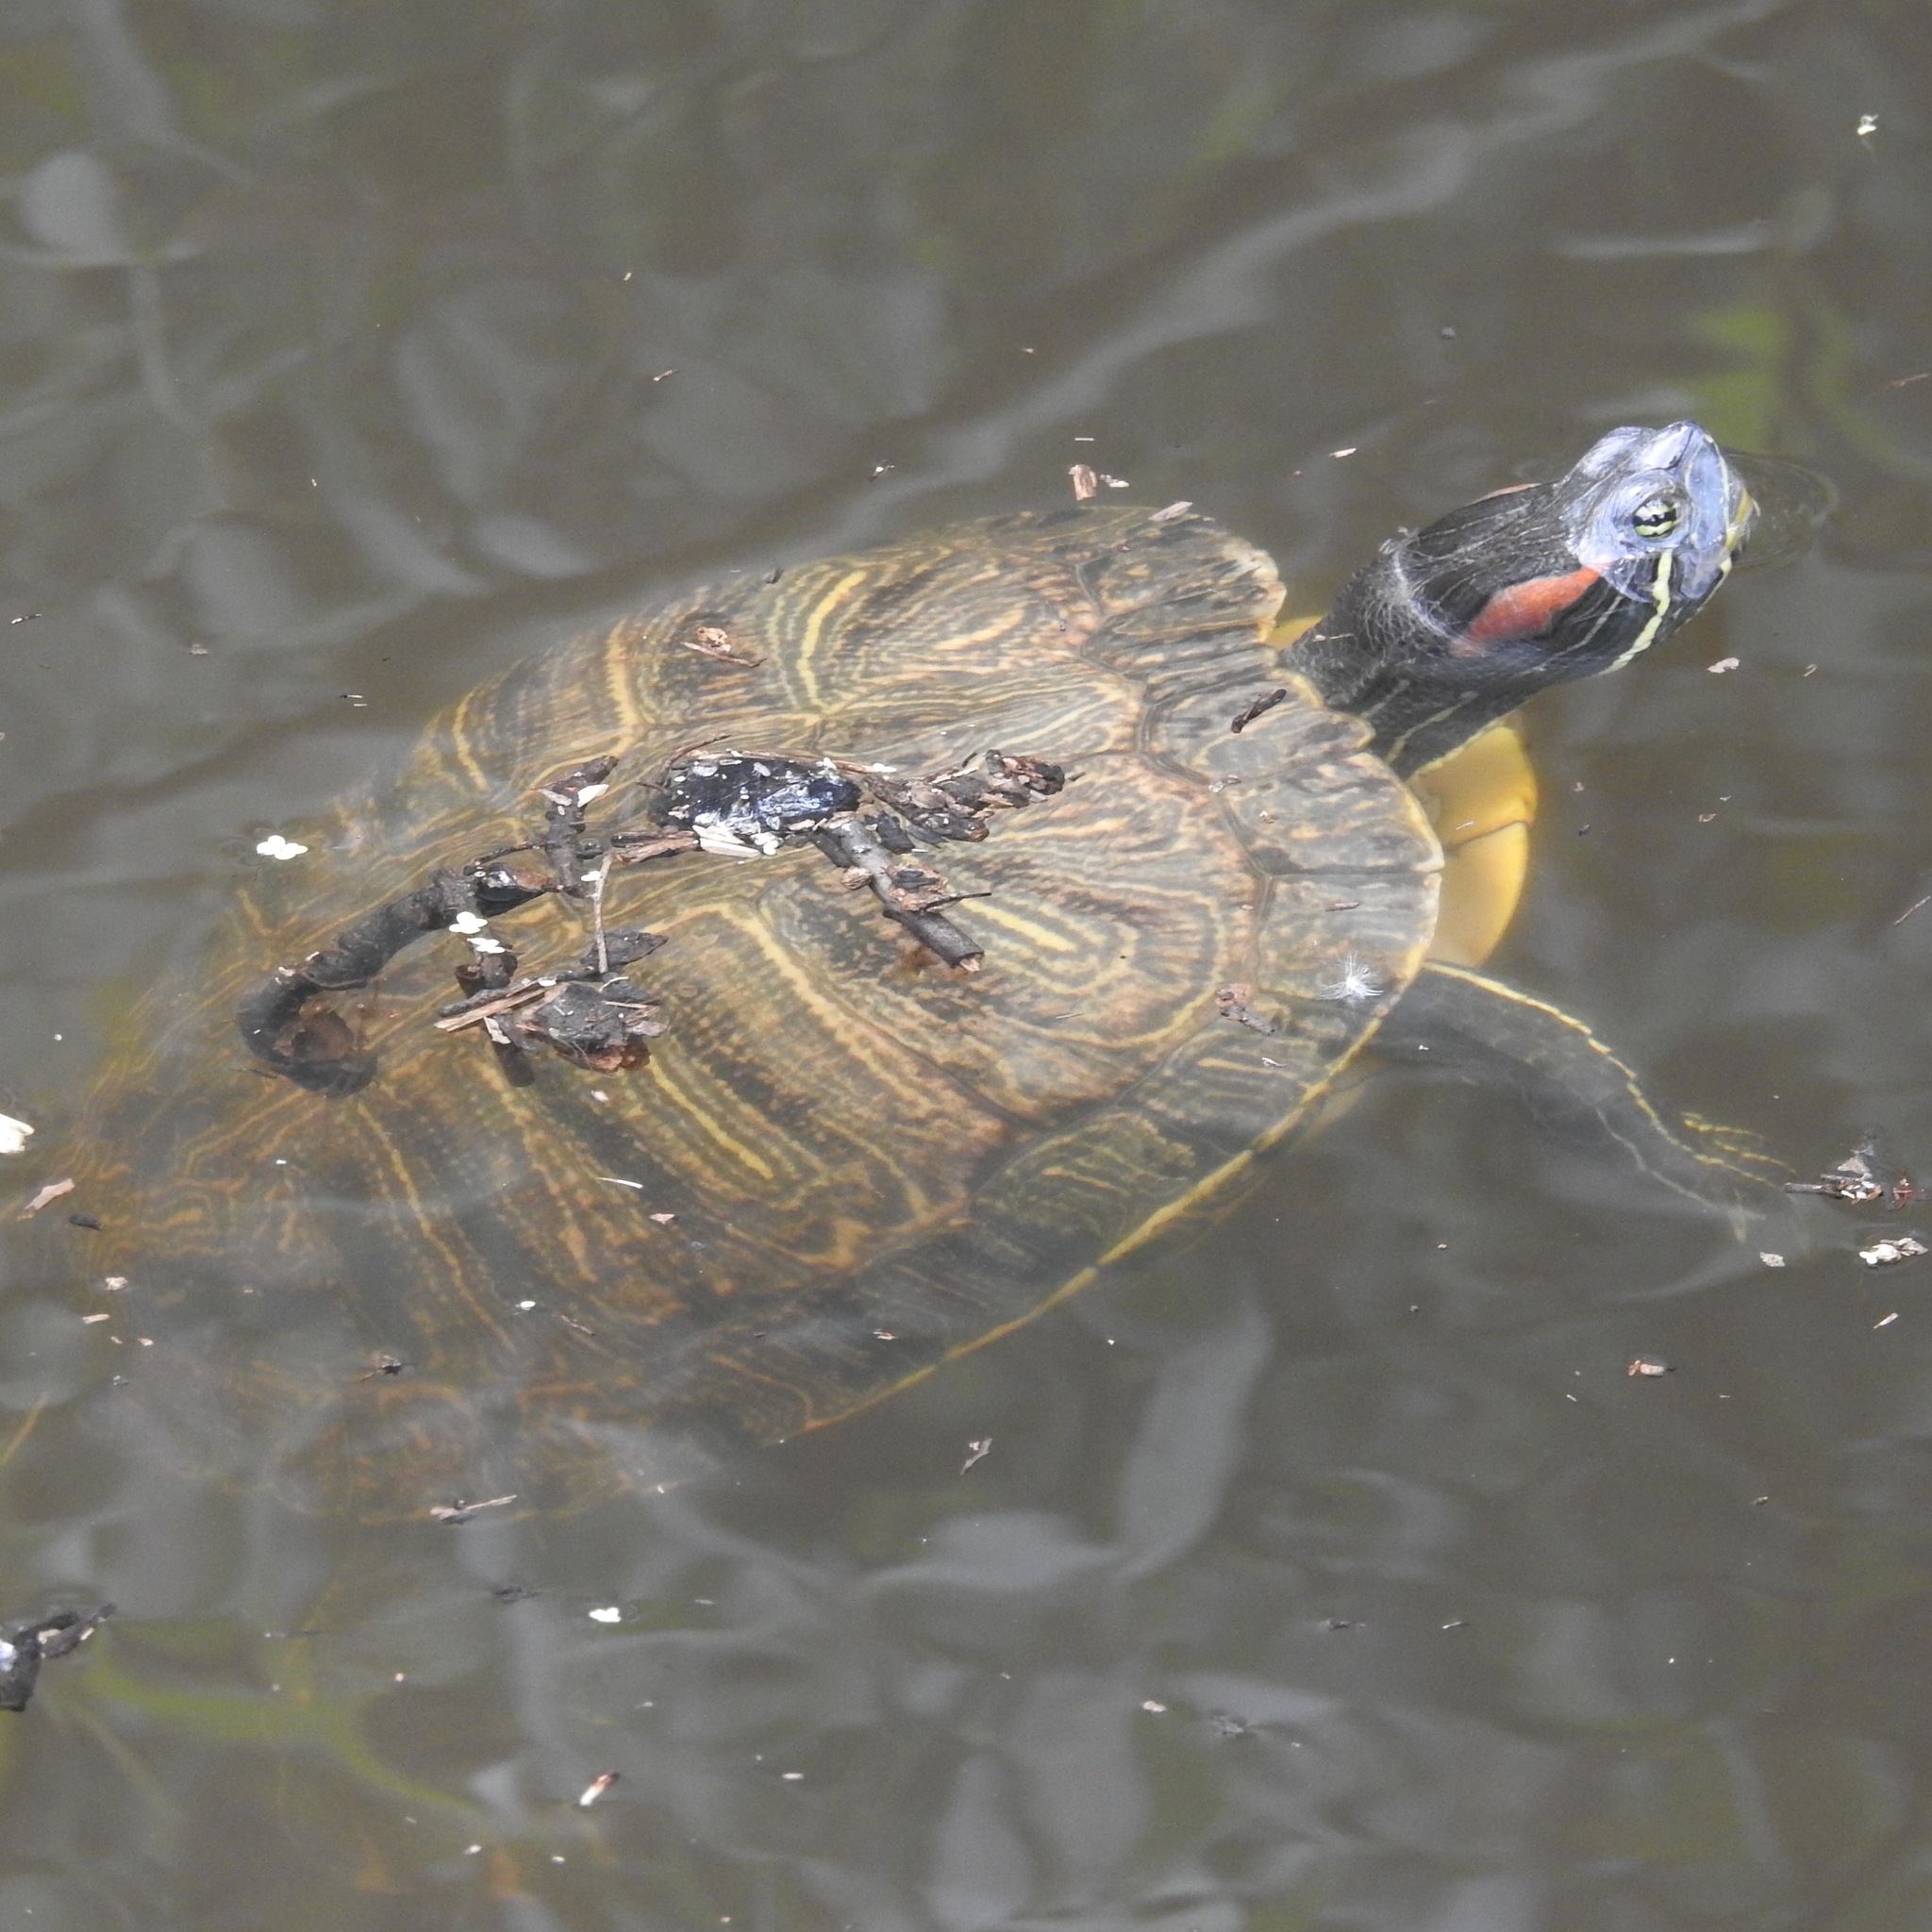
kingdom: Animalia
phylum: Chordata
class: Testudines
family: Emydidae
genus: Trachemys
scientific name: Trachemys scripta
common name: Slider
